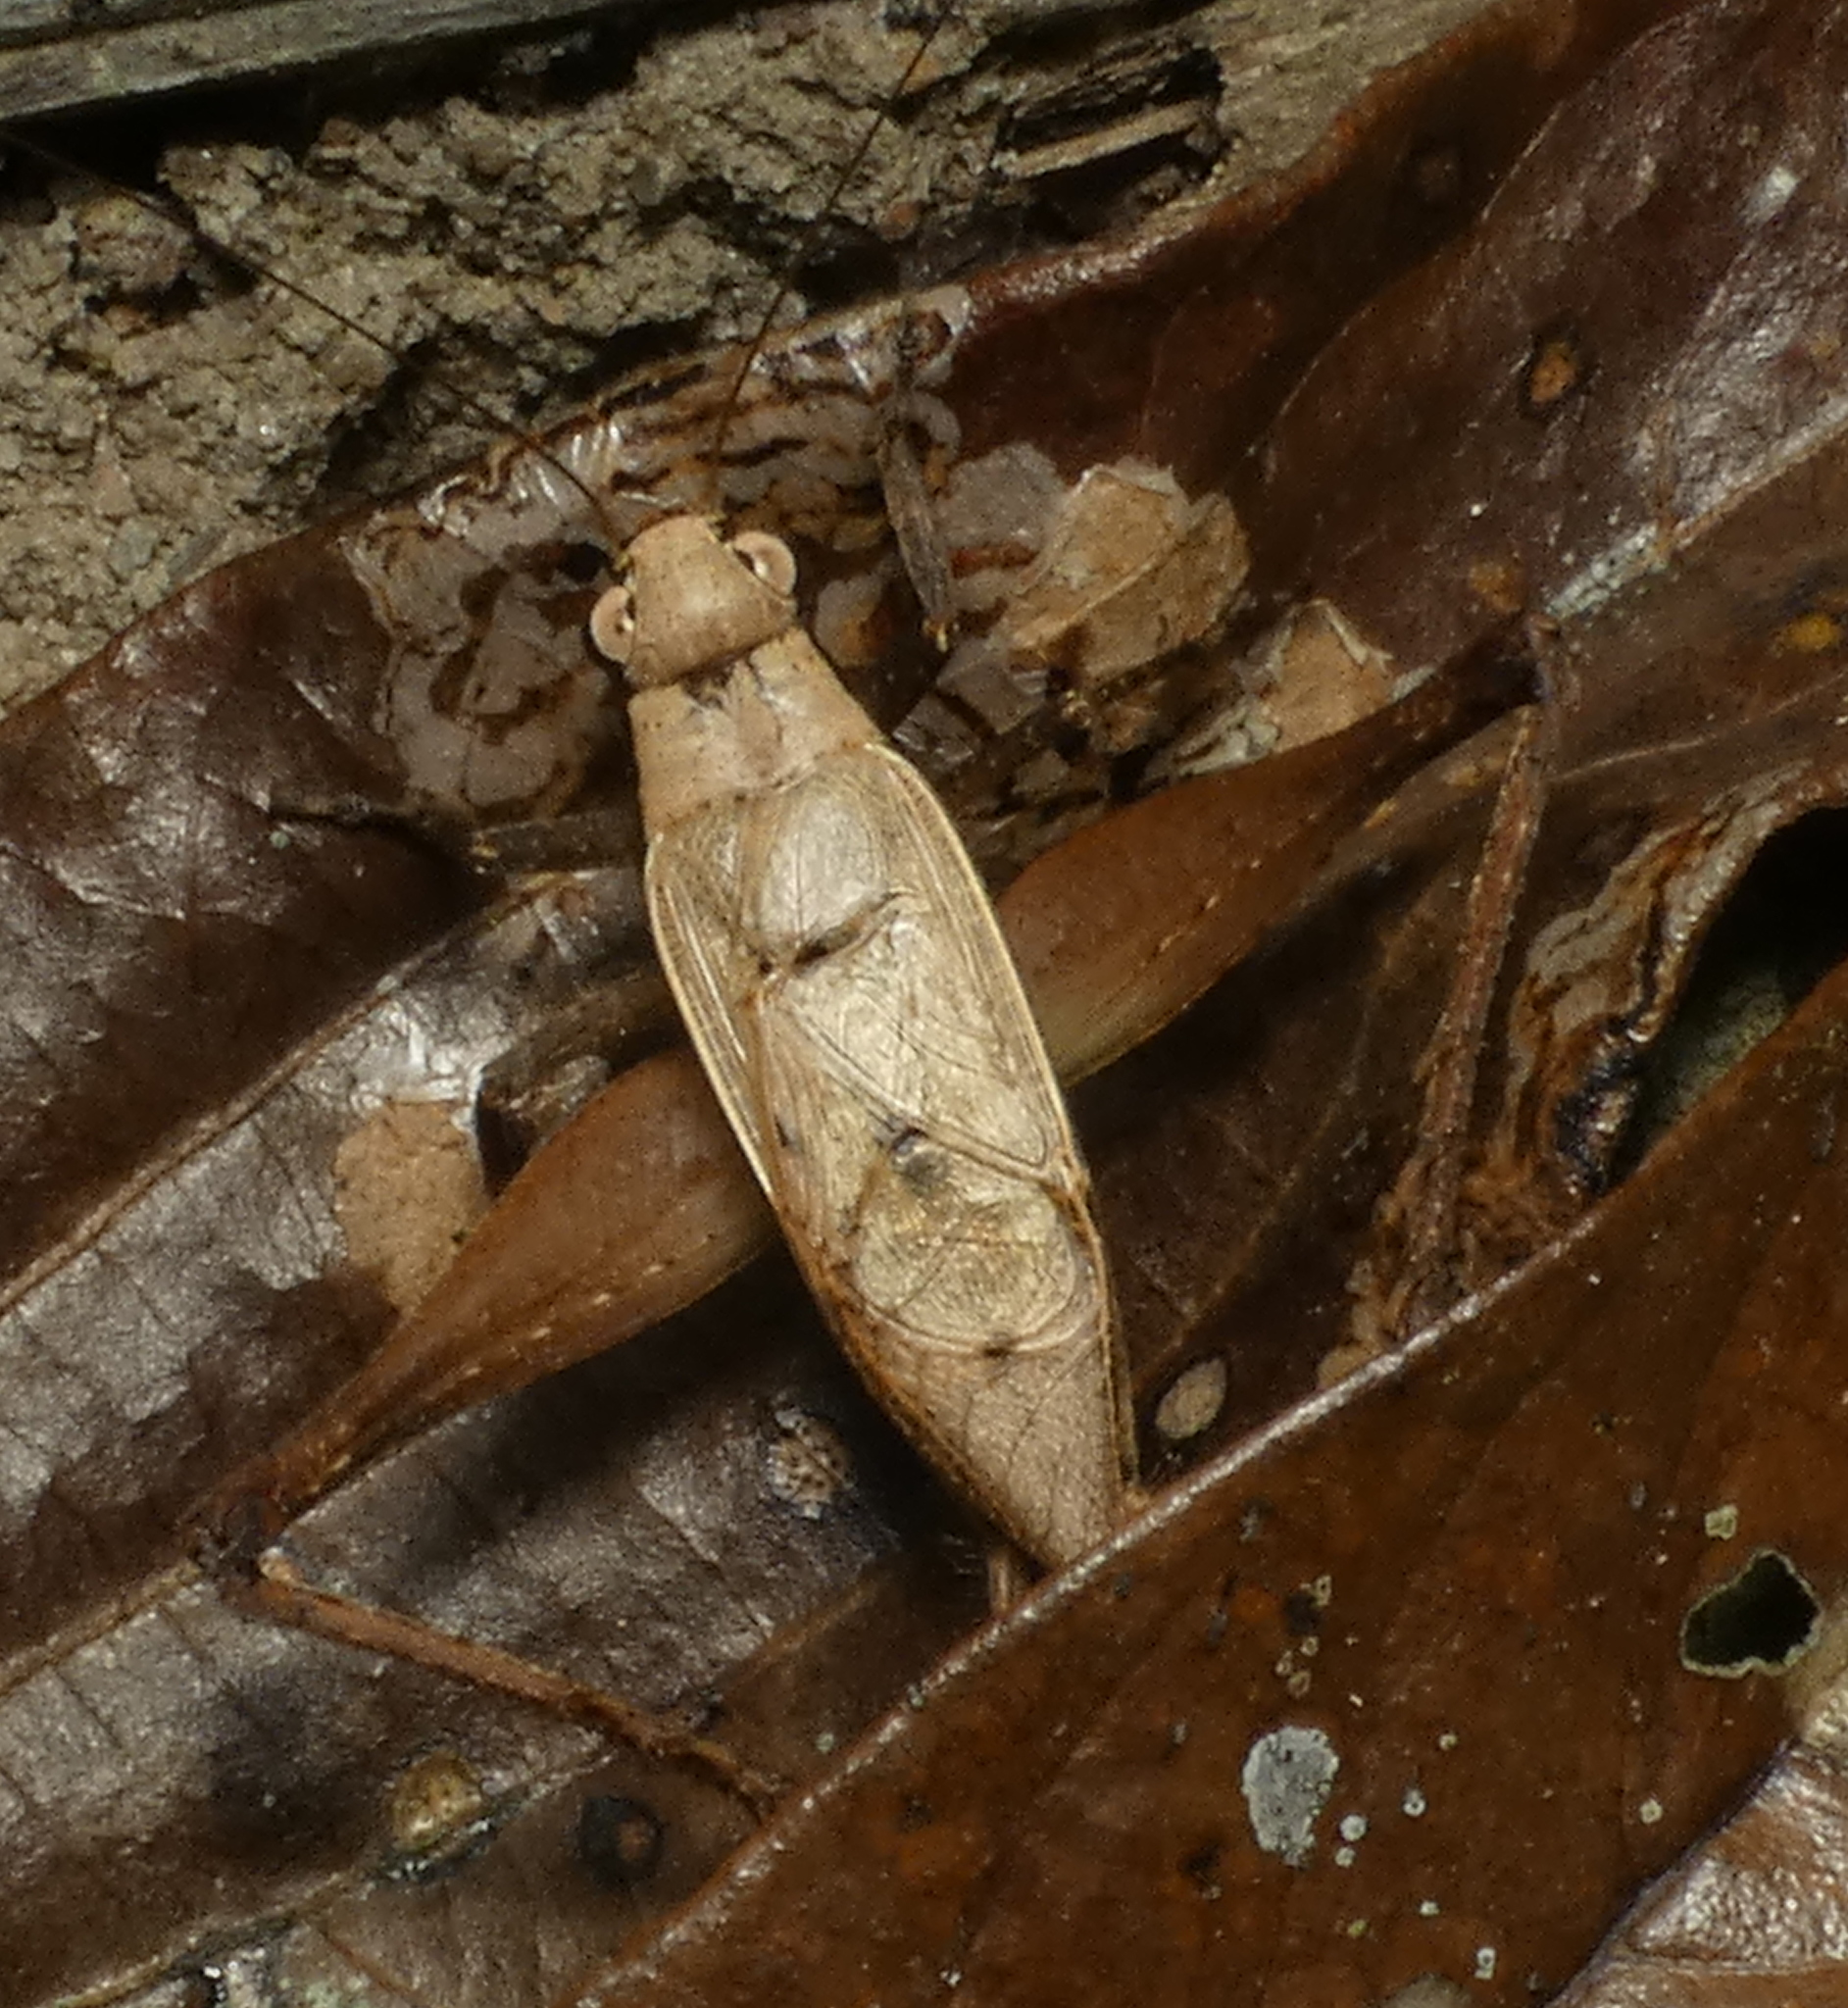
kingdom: Animalia
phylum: Arthropoda
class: Insecta
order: Orthoptera
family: Gryllidae
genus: Eneoptera
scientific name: Eneoptera surinamensis
